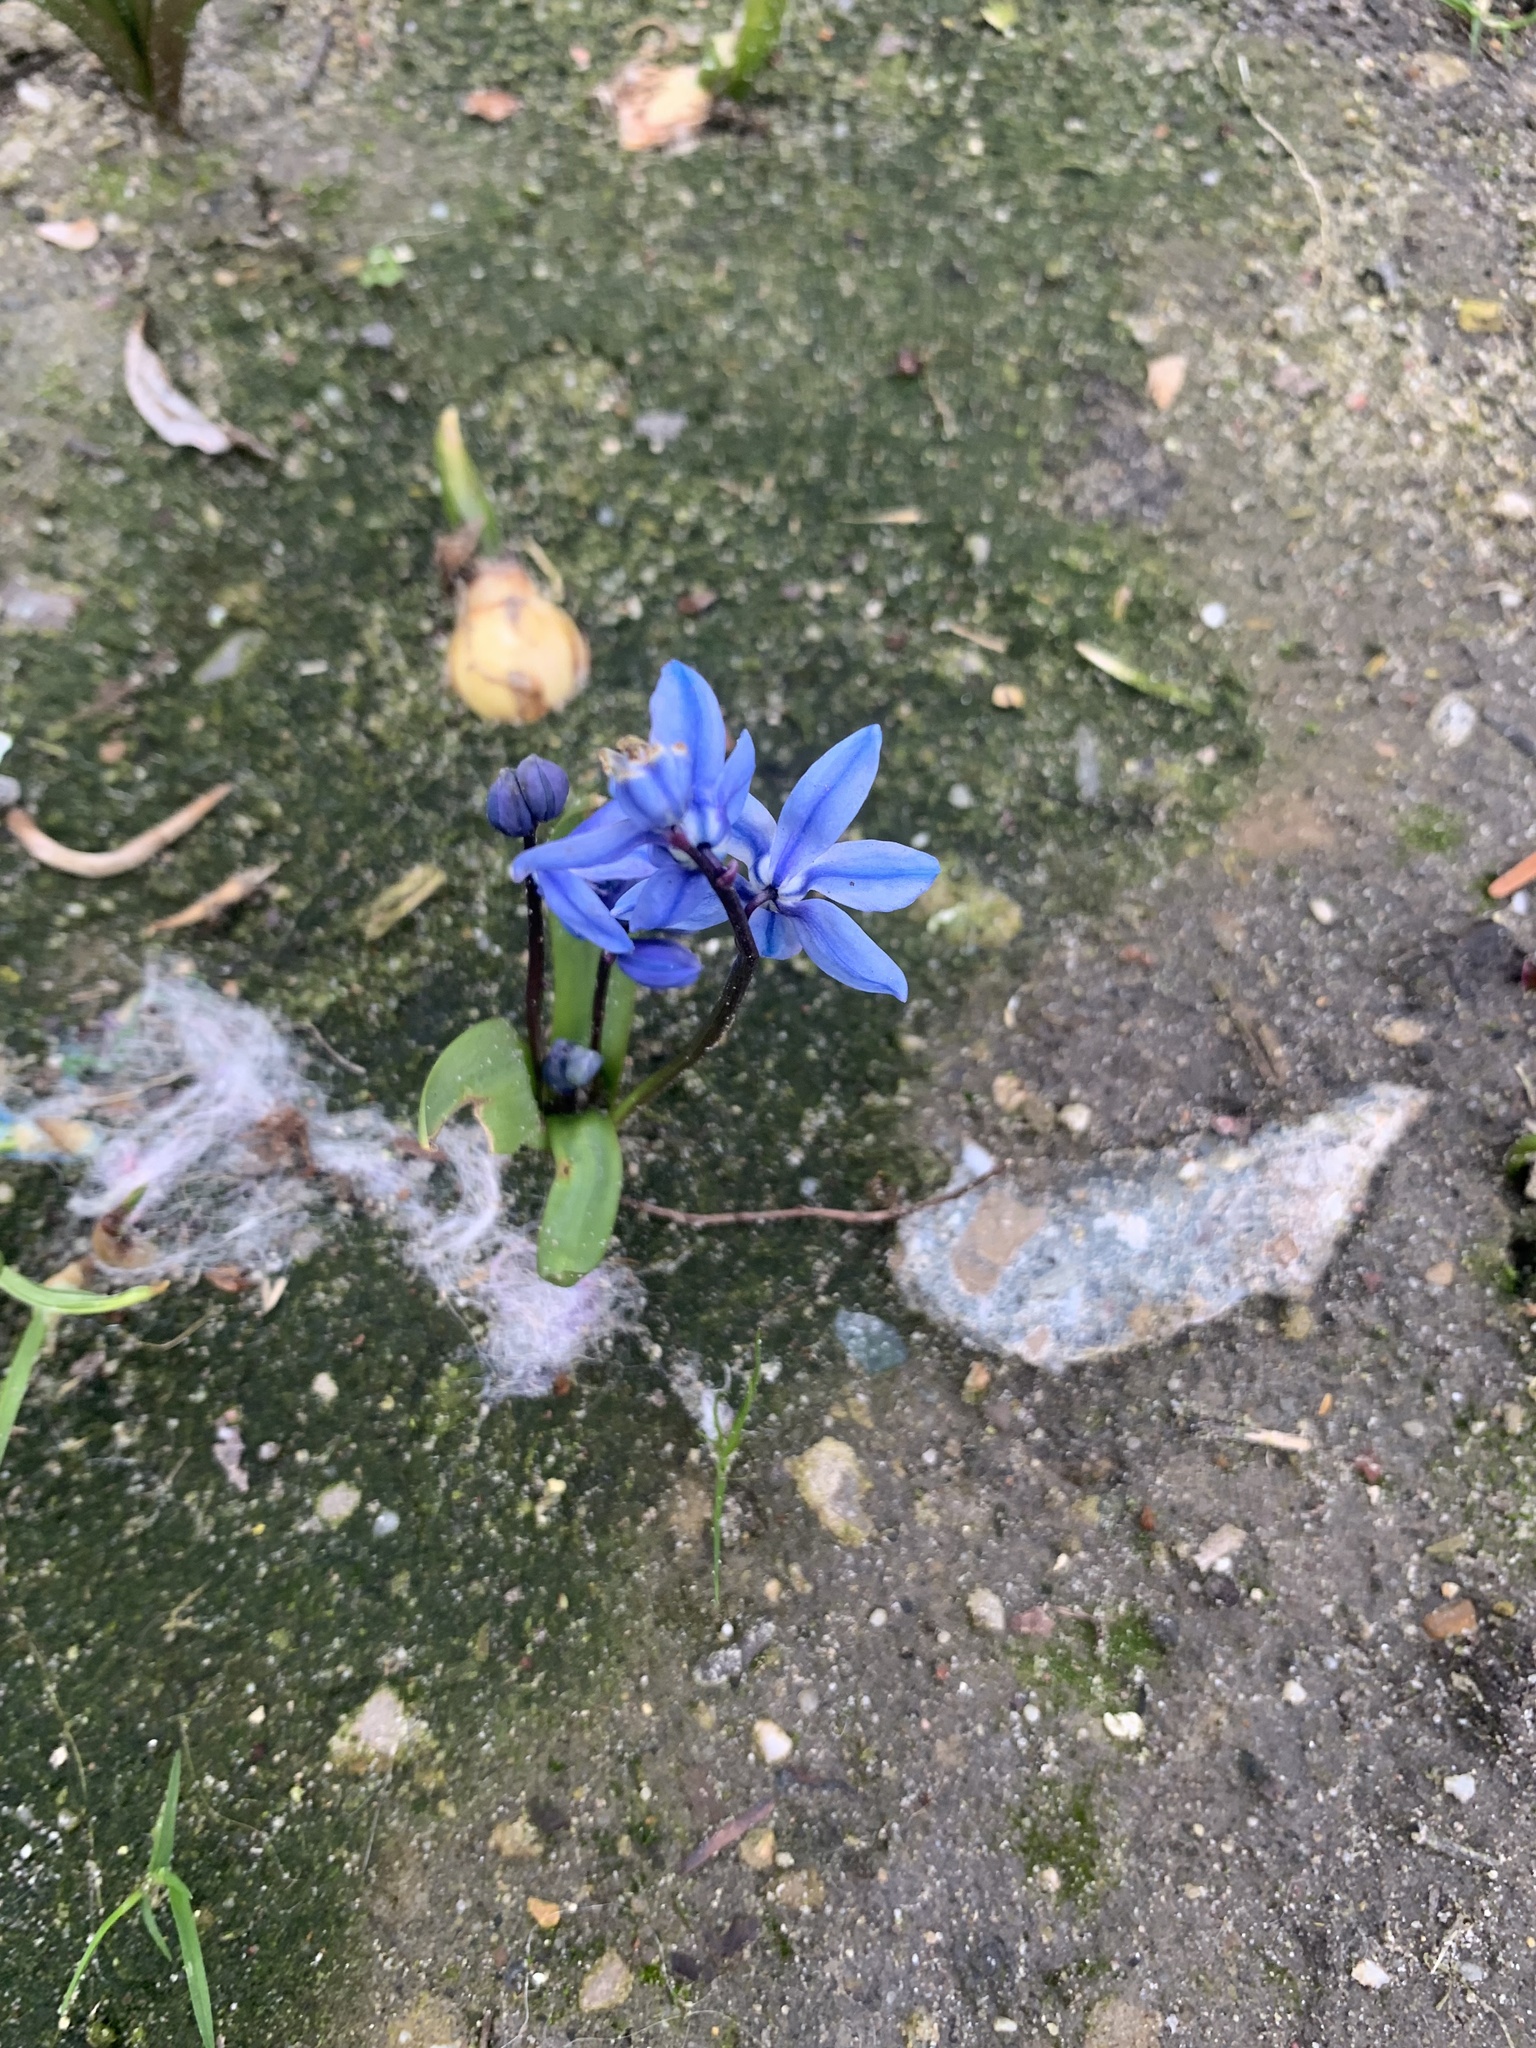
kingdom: Plantae
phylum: Tracheophyta
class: Liliopsida
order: Asparagales
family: Asparagaceae
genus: Scilla
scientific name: Scilla siberica
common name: Siberian squill
